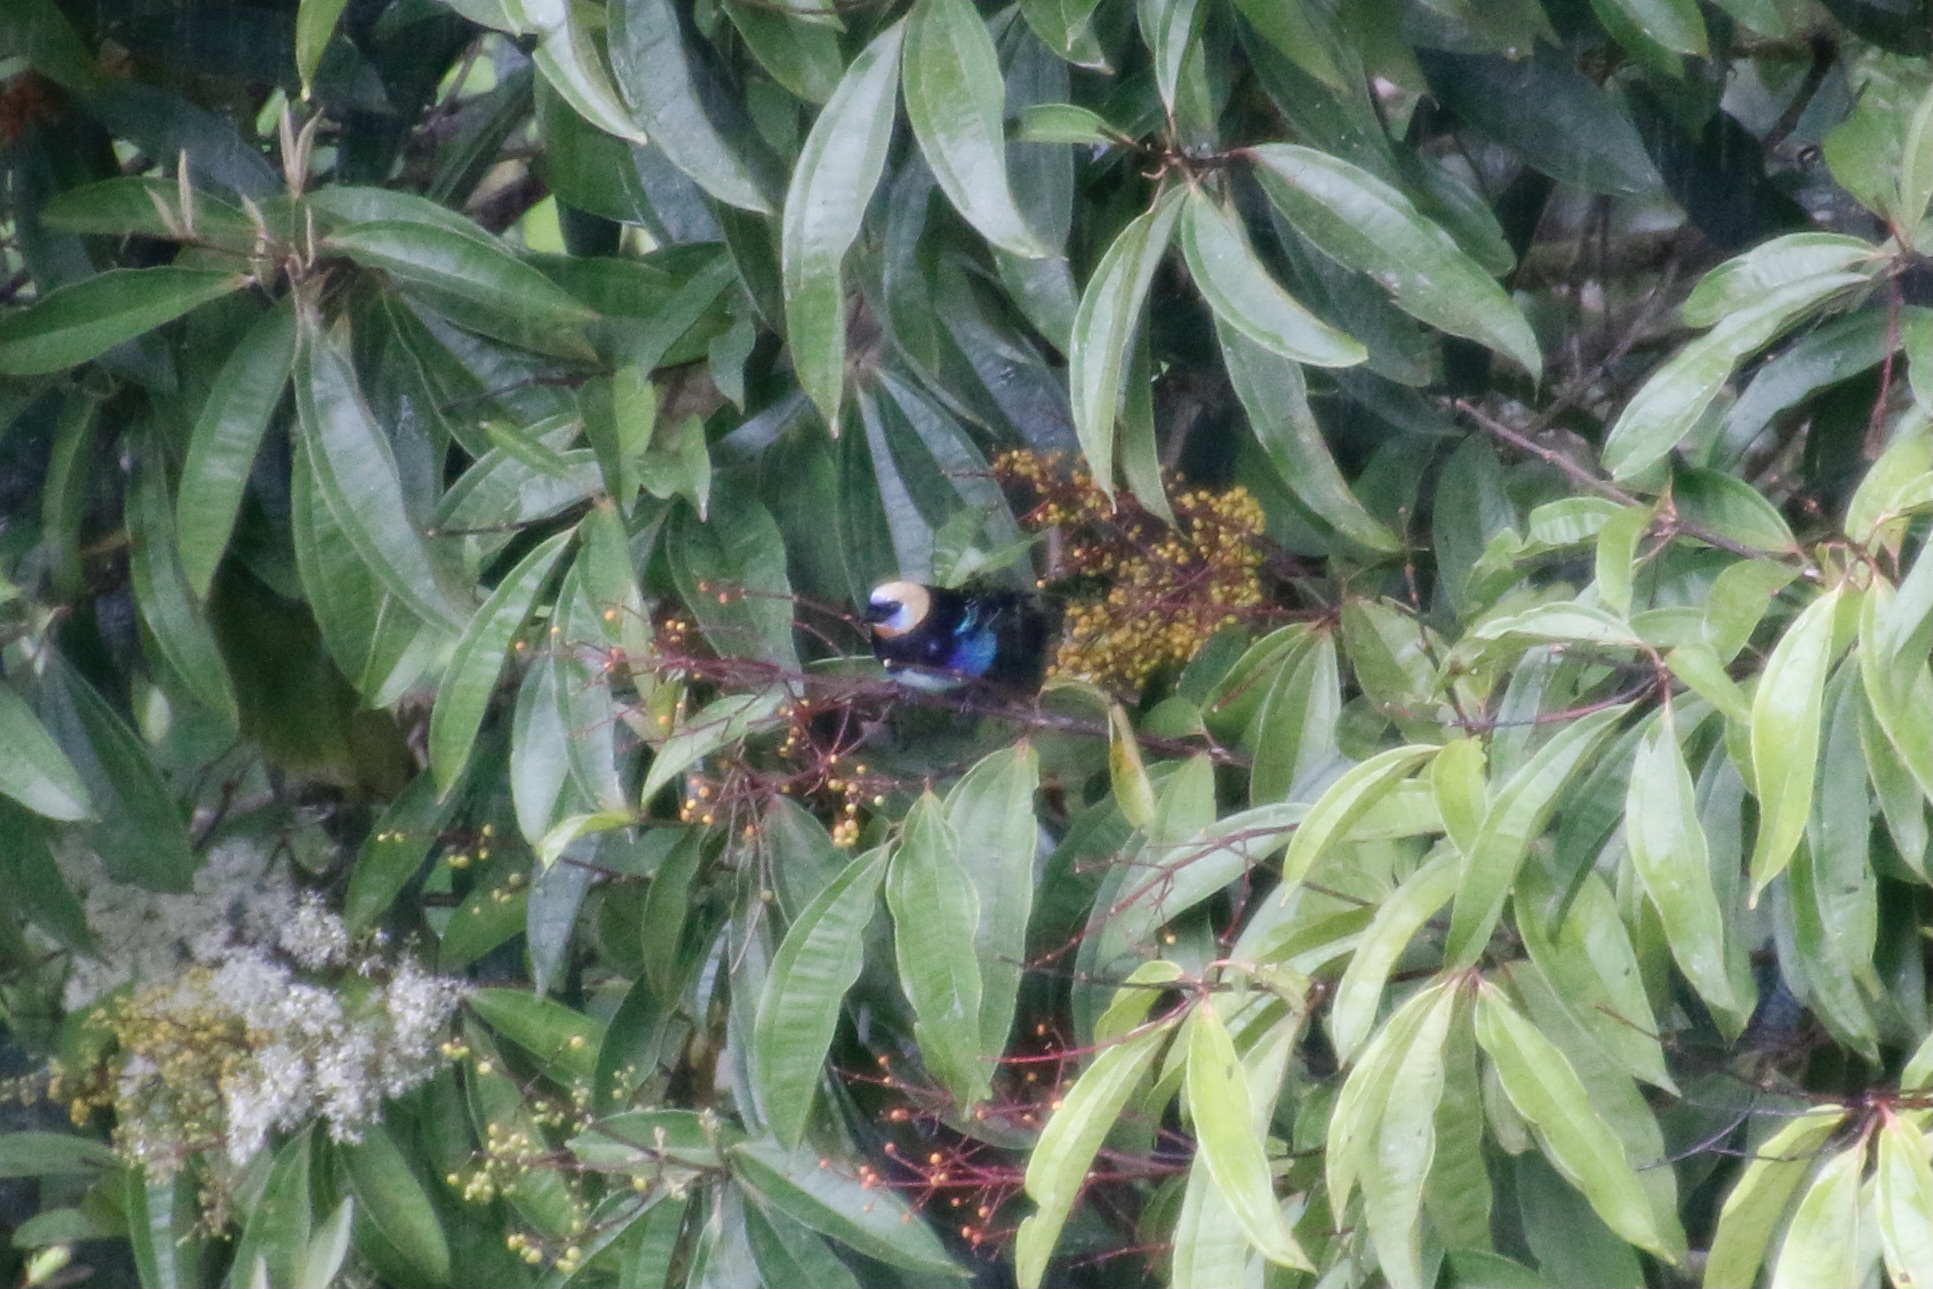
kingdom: Animalia
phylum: Chordata
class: Aves
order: Passeriformes
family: Thraupidae
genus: Stilpnia
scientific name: Stilpnia larvata
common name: Golden-hooded tanager
